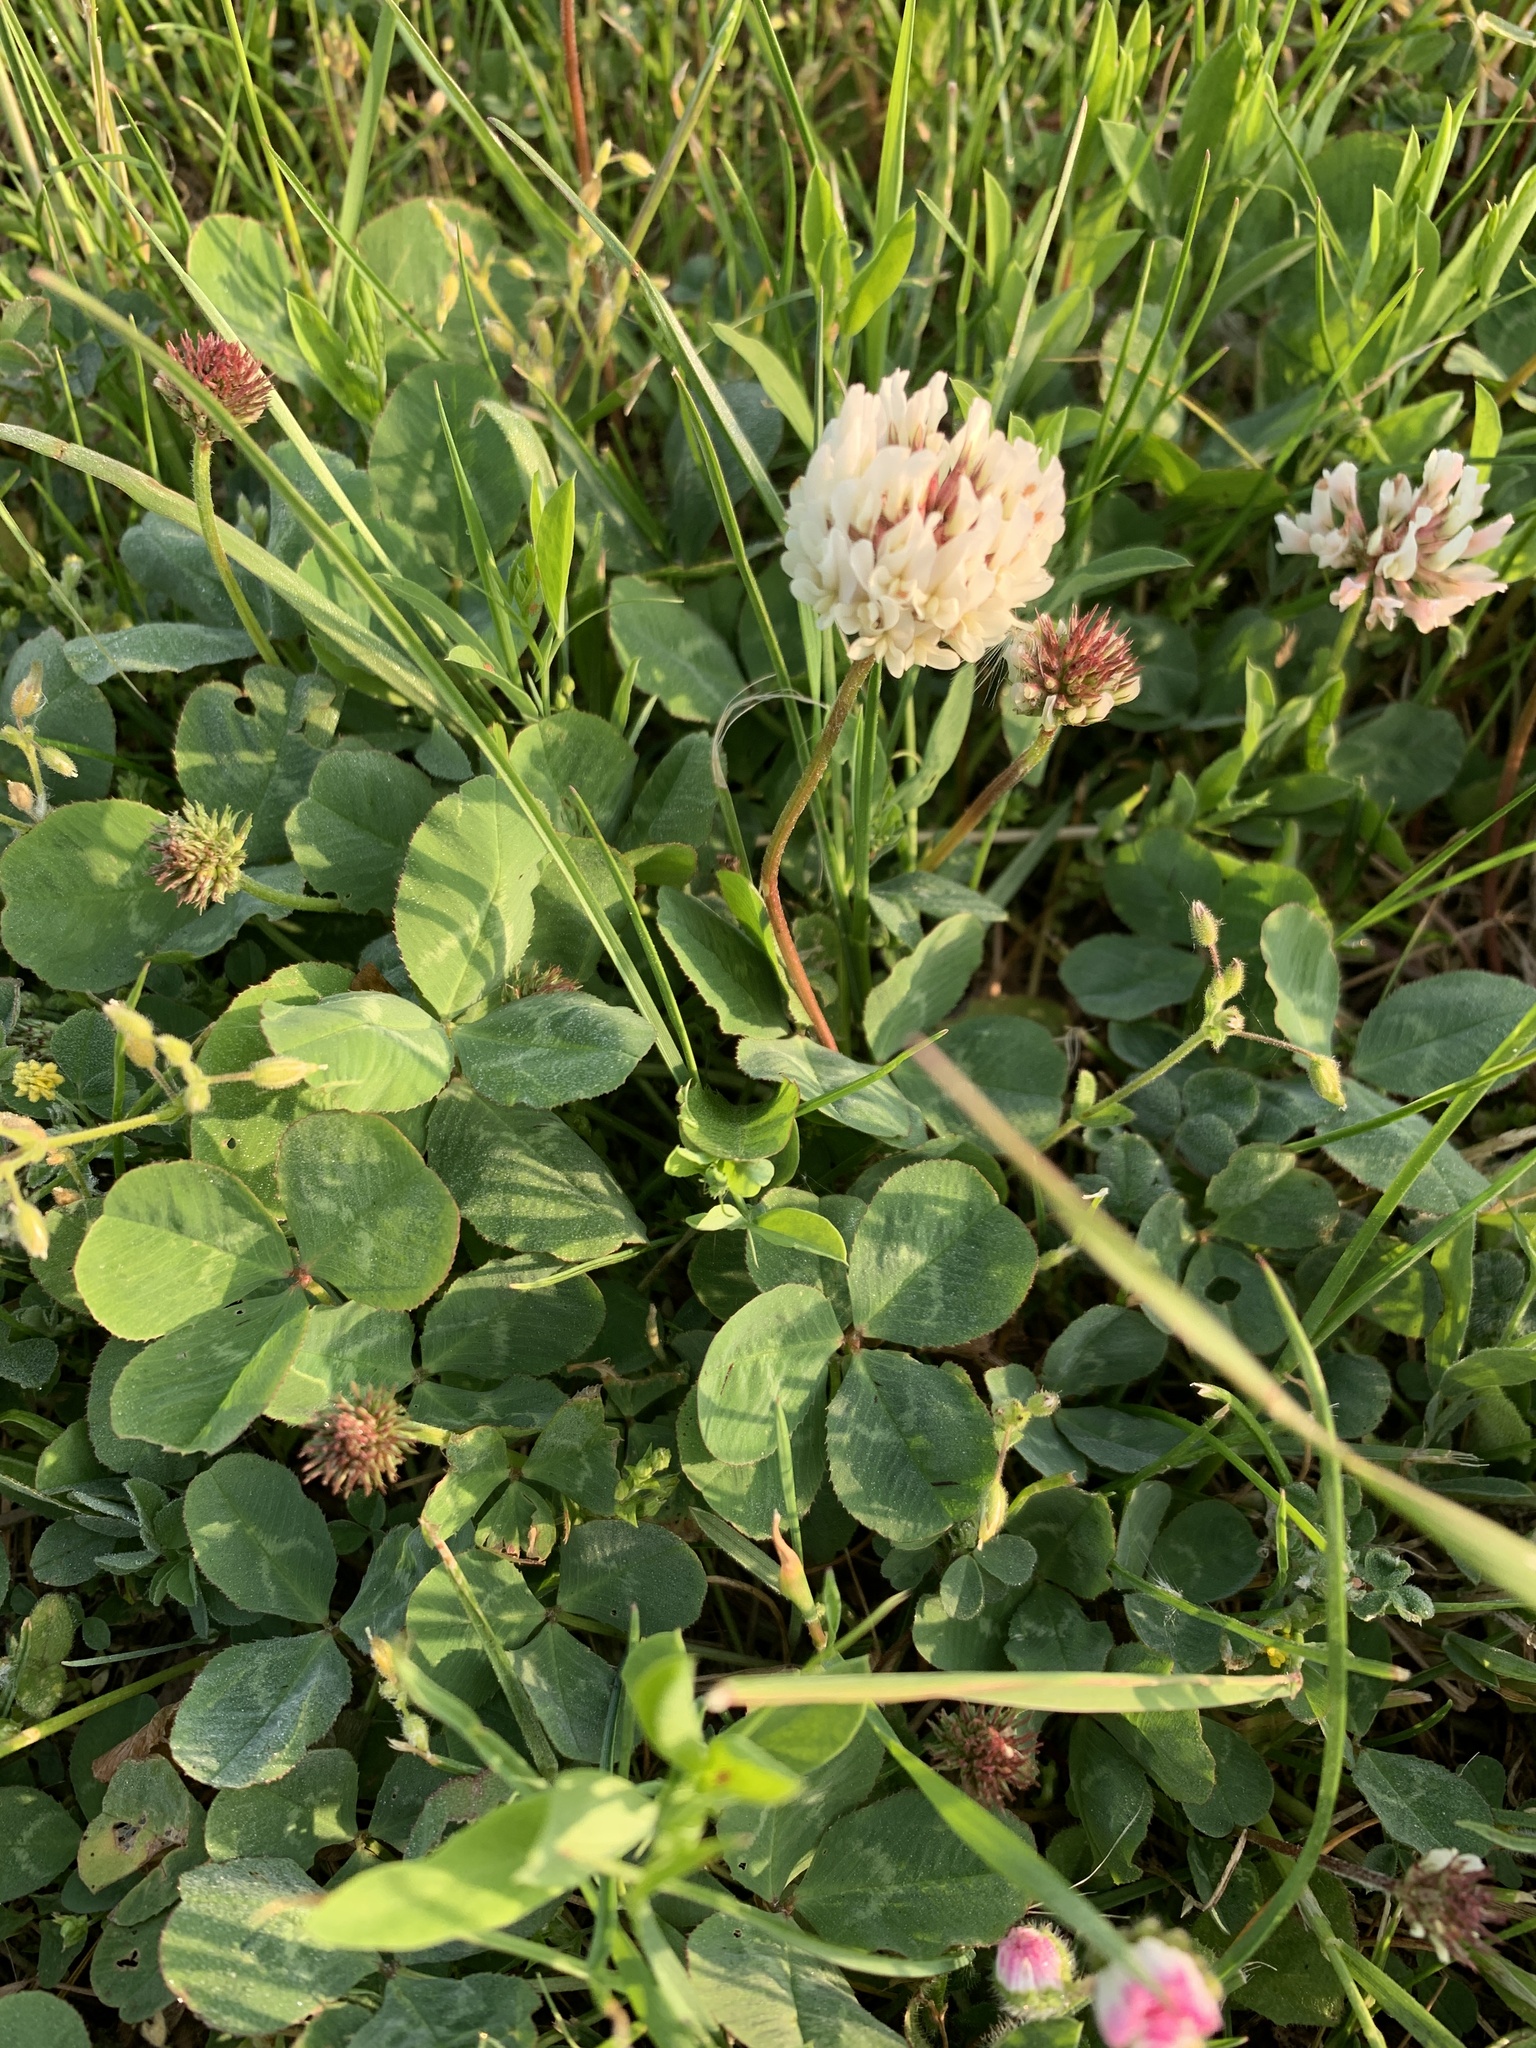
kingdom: Plantae
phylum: Tracheophyta
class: Magnoliopsida
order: Fabales
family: Fabaceae
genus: Trifolium
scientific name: Trifolium repens
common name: White clover
